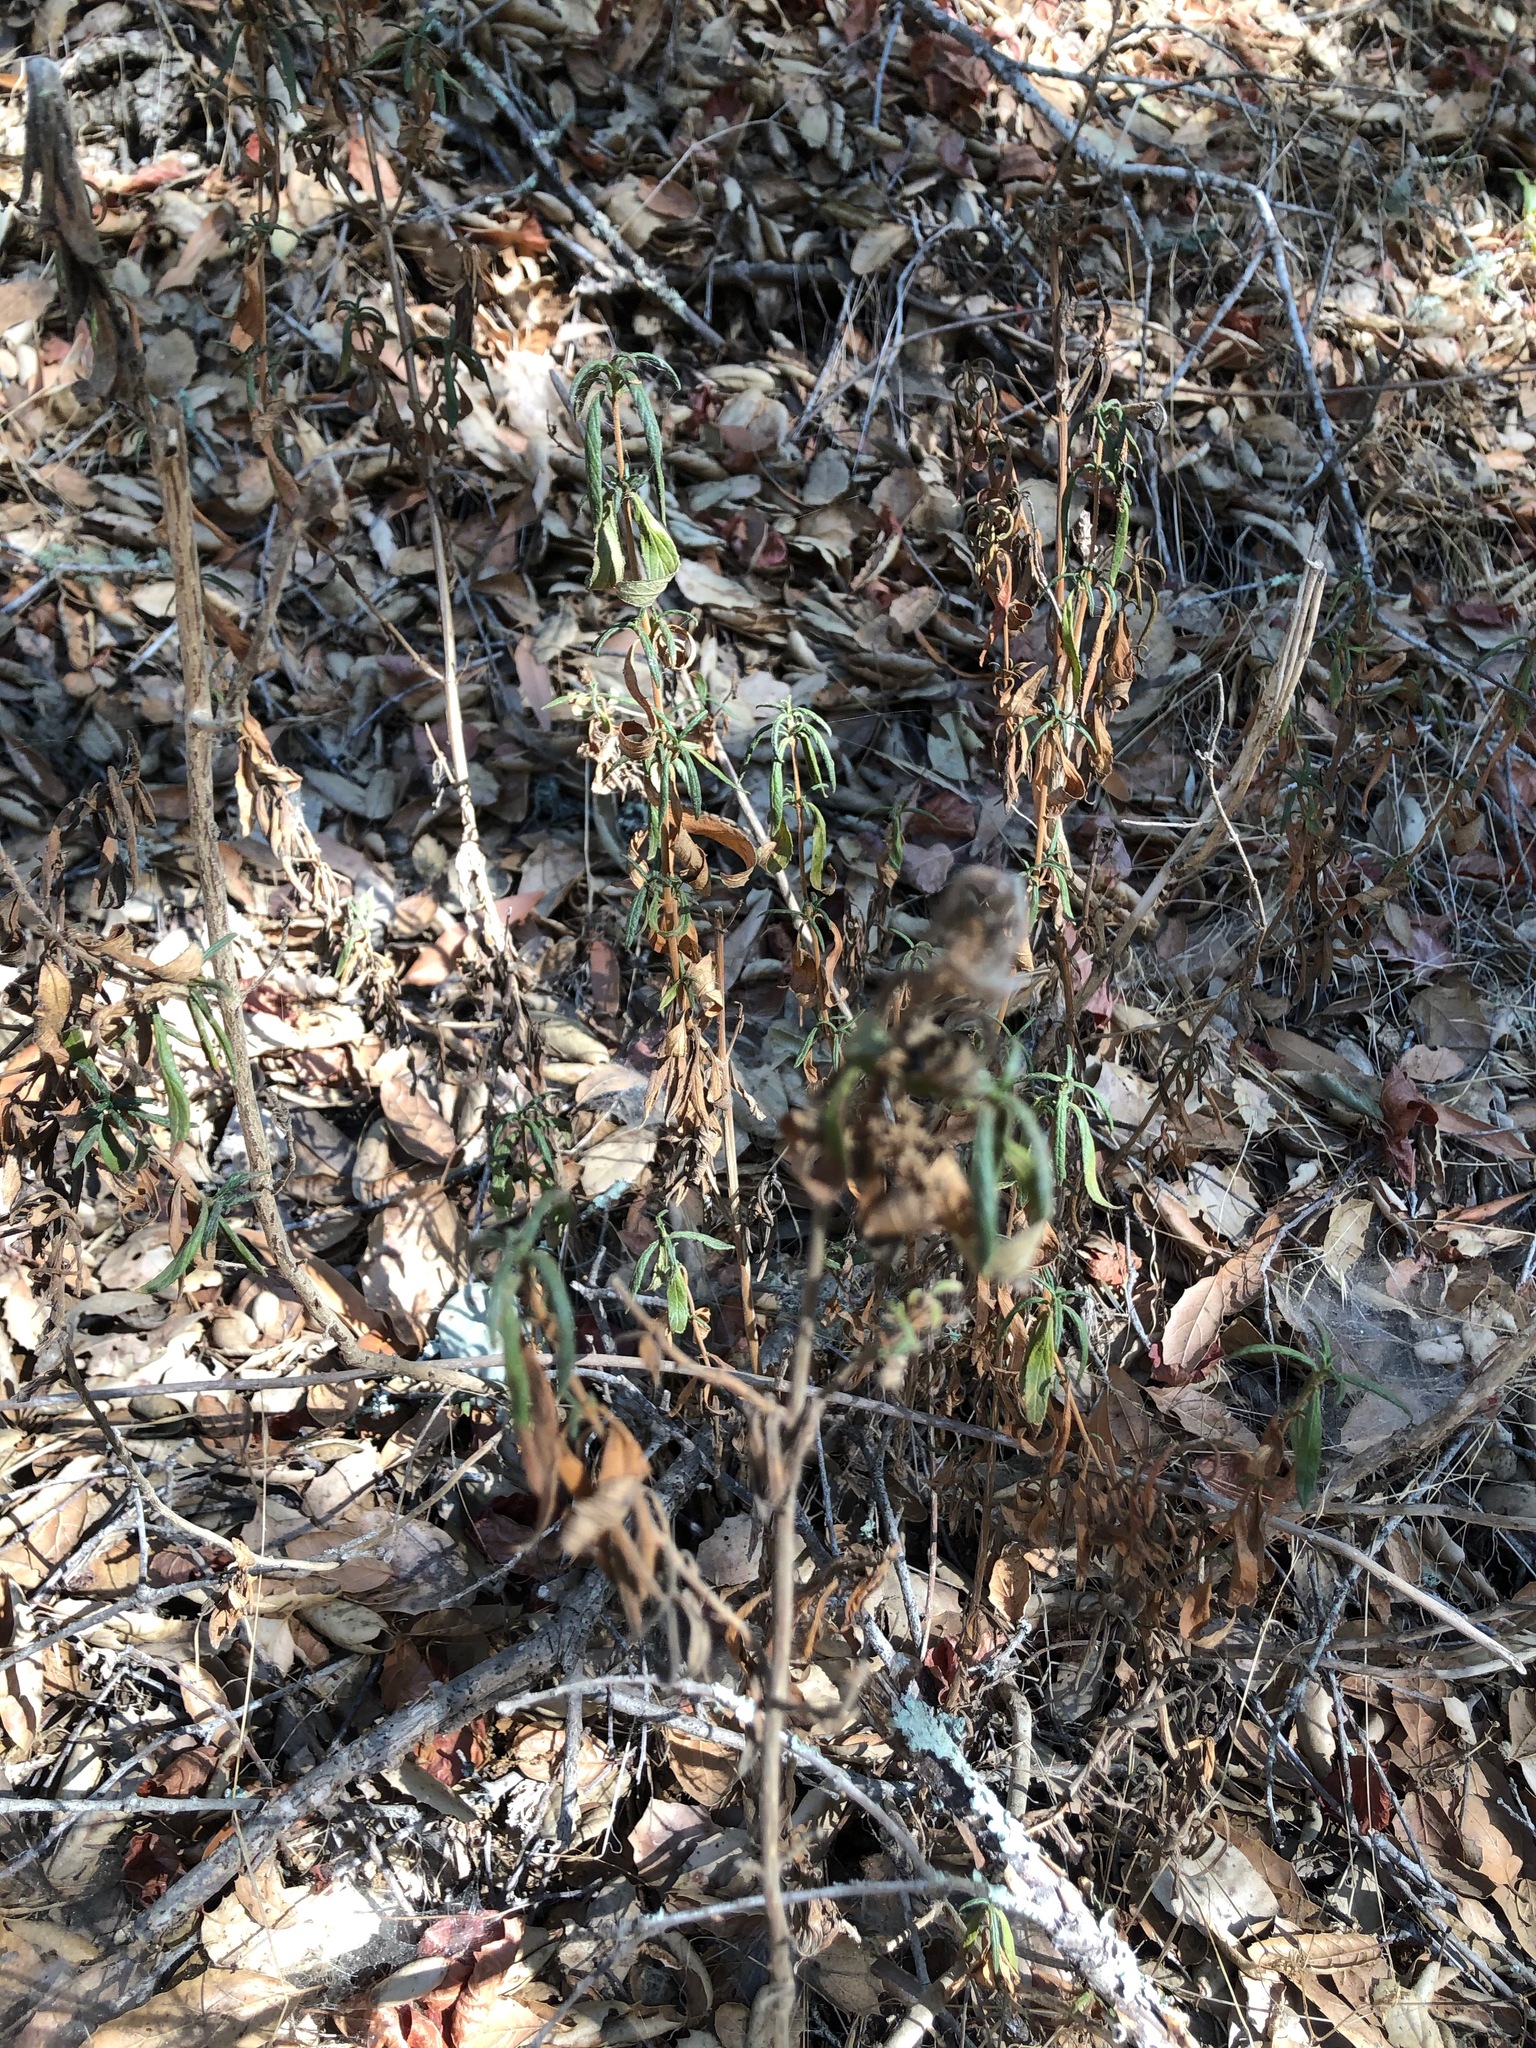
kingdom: Plantae
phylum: Tracheophyta
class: Magnoliopsida
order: Lamiales
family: Phrymaceae
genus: Diplacus
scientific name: Diplacus aurantiacus
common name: Bush monkey-flower
